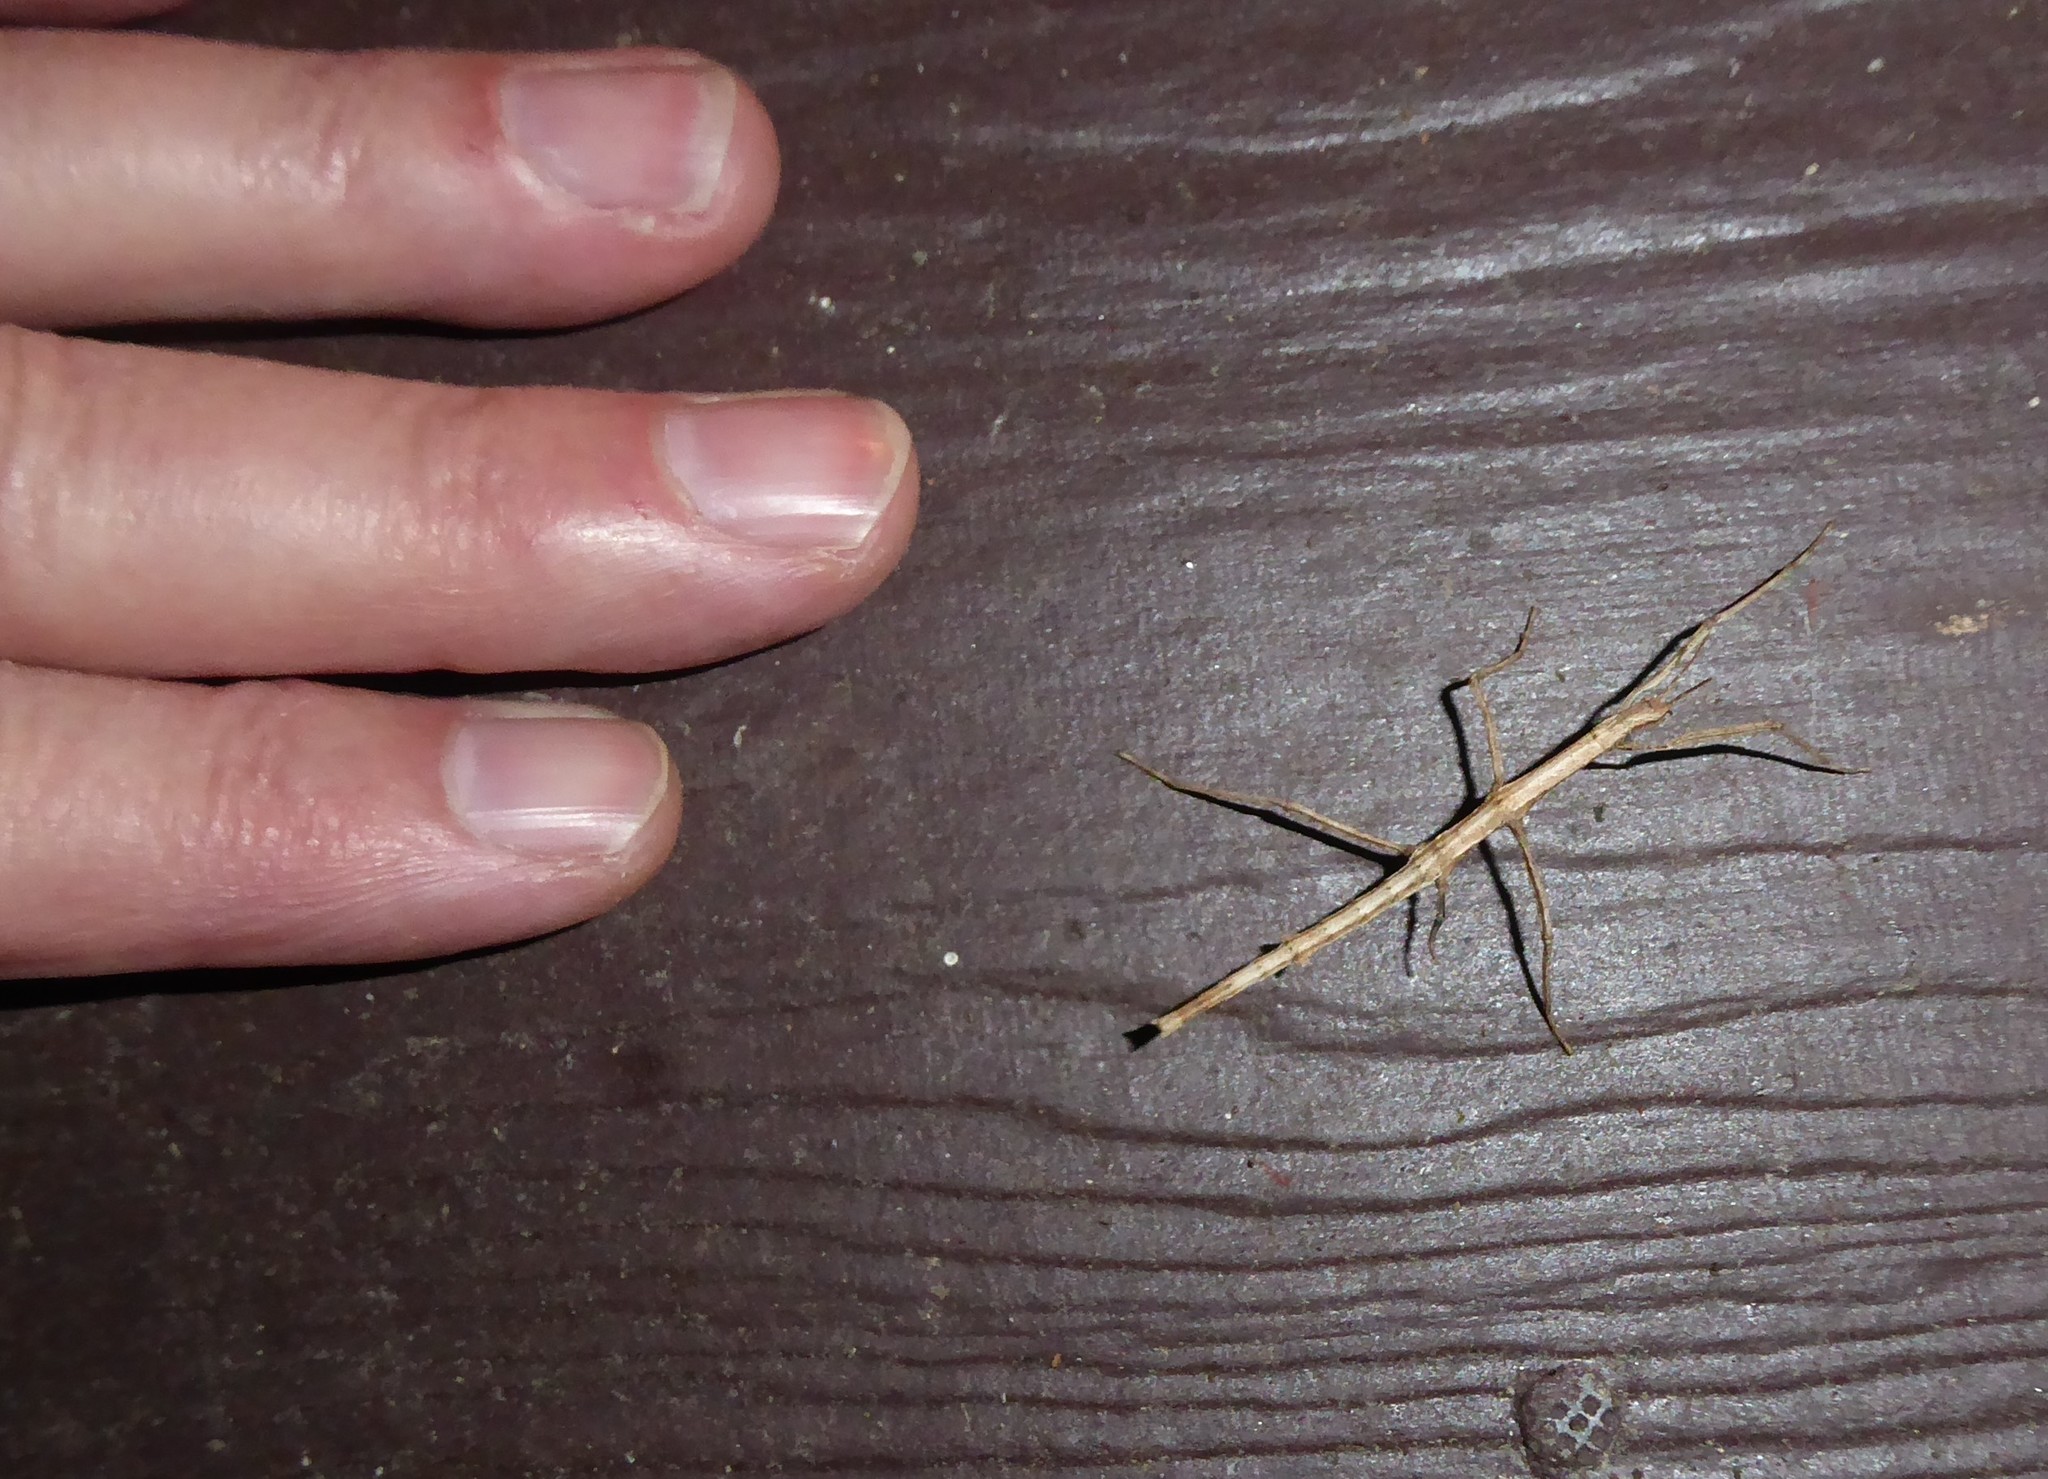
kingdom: Animalia
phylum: Arthropoda
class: Insecta
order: Phasmida
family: Phasmatidae
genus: Niveaphasma
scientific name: Niveaphasma annulatum
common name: Hutton's stick insect
